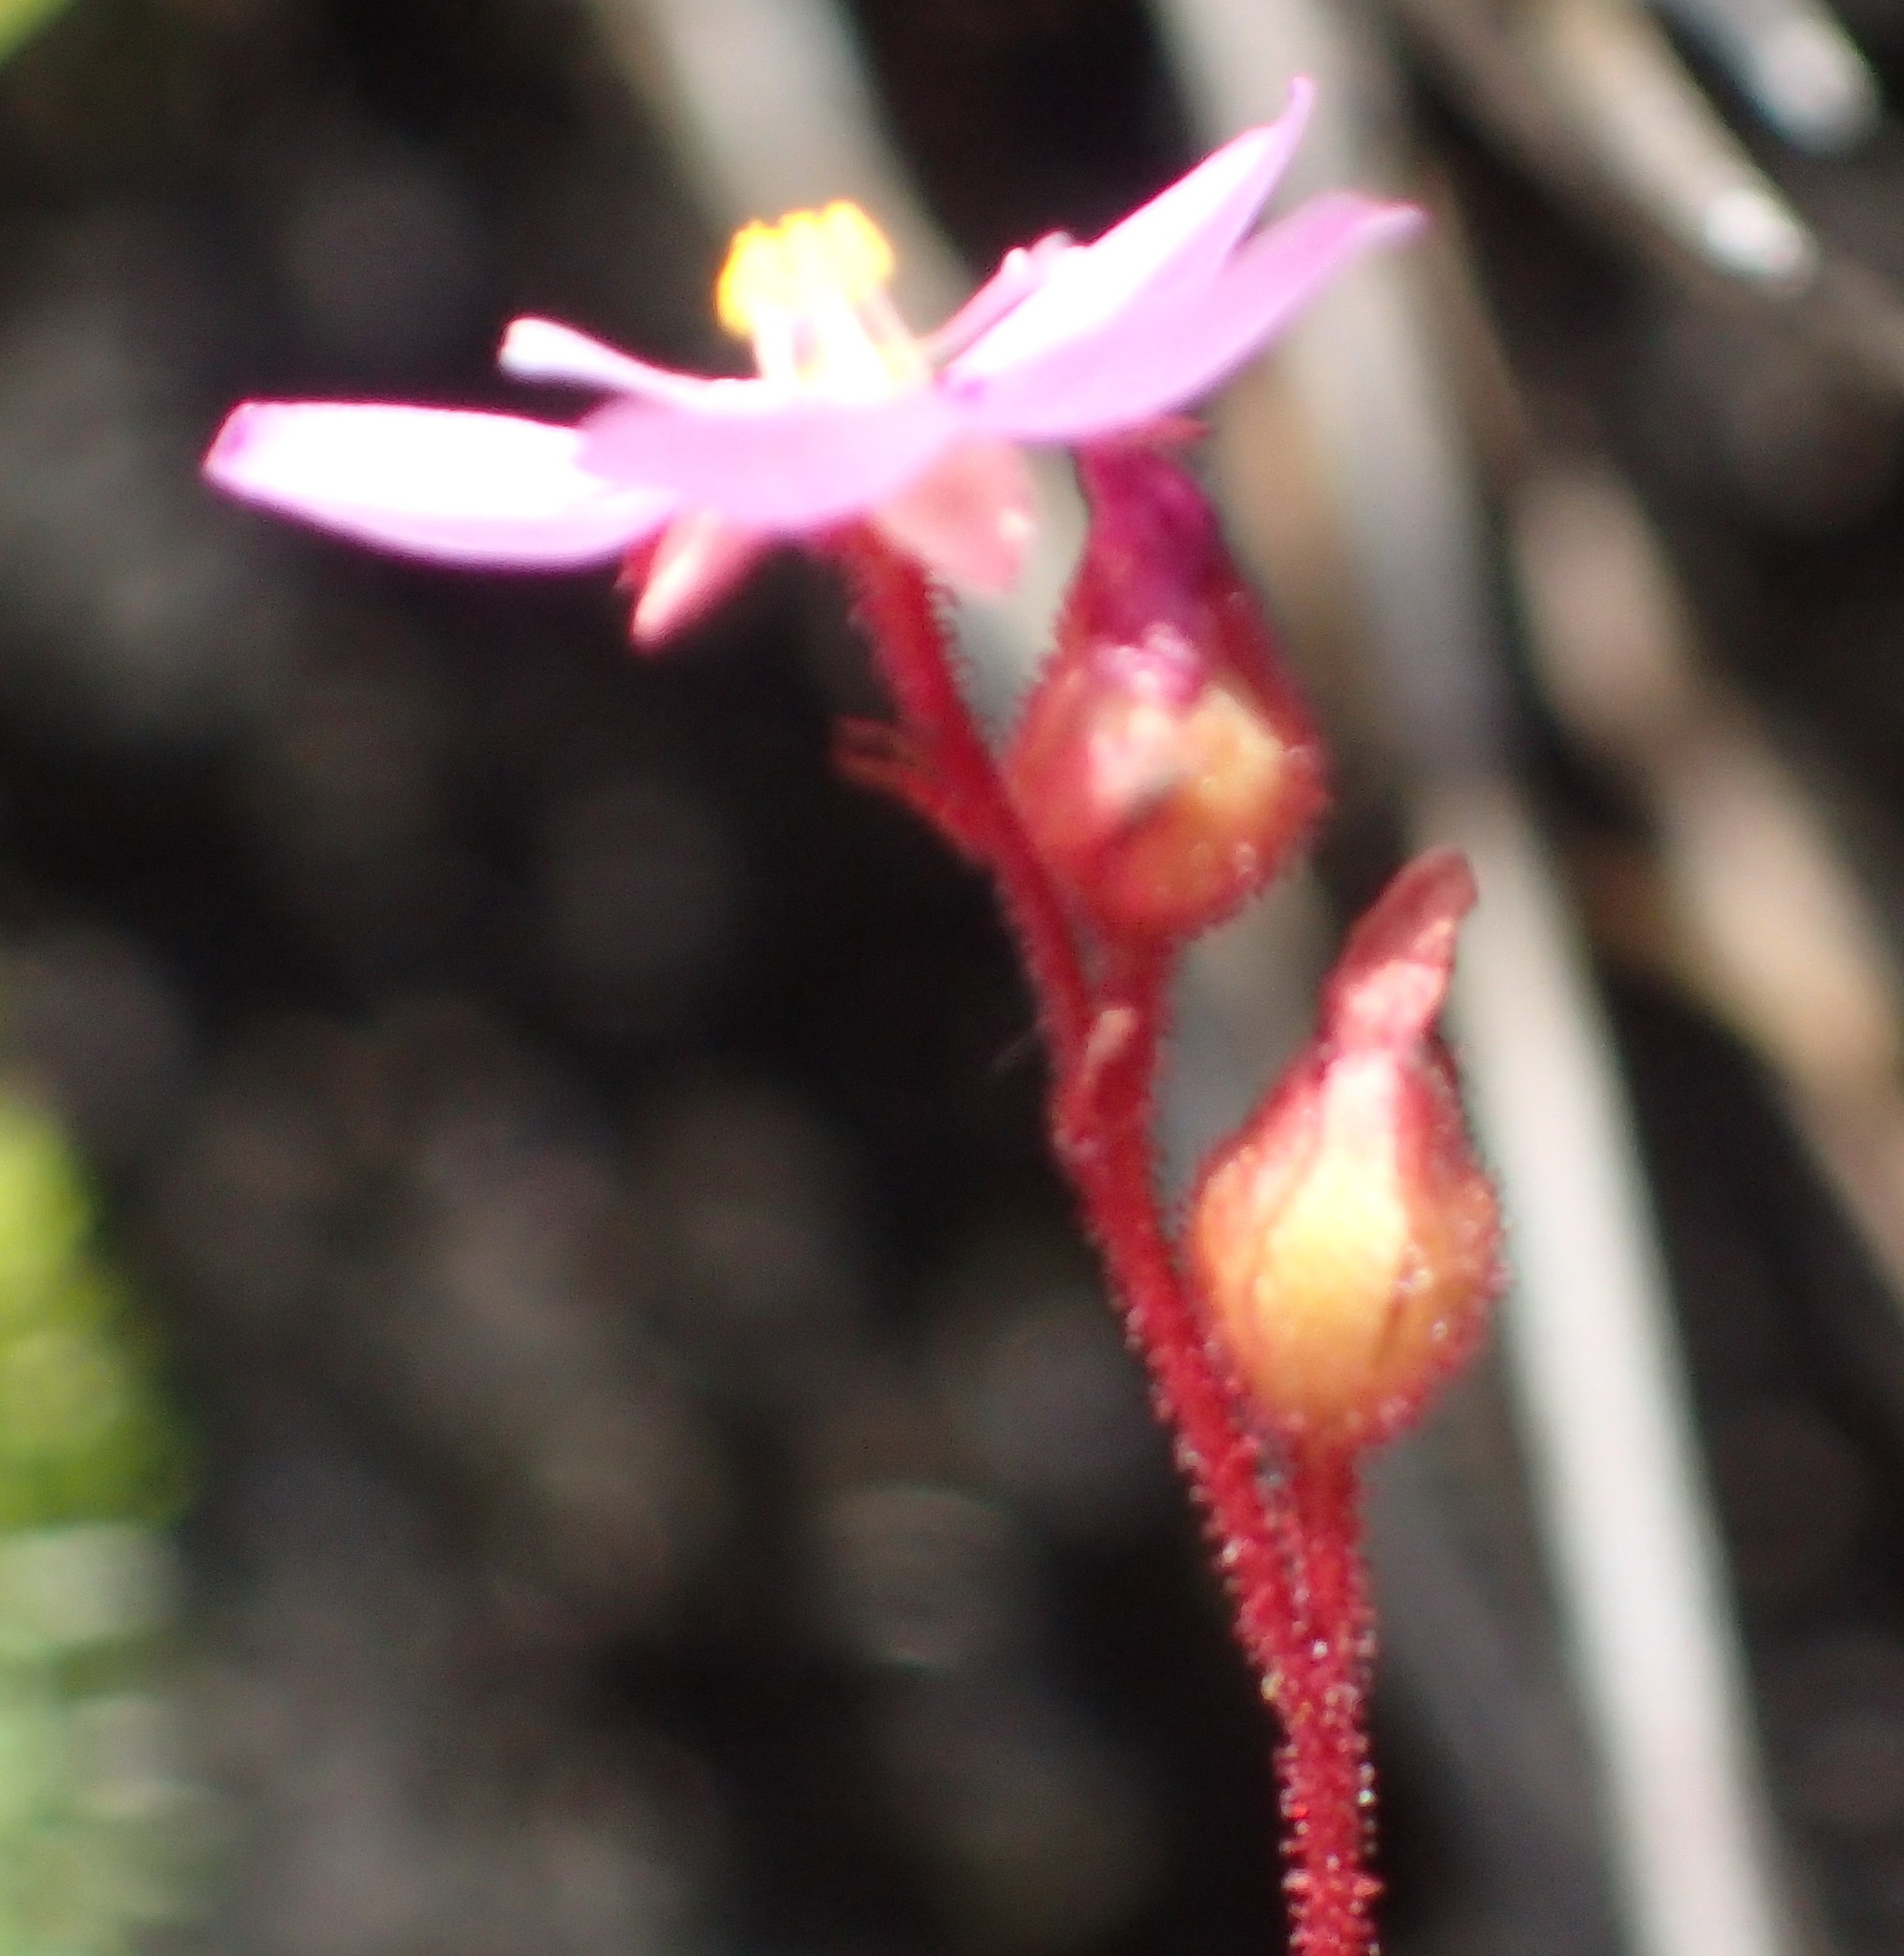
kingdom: Plantae
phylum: Tracheophyta
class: Magnoliopsida
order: Caryophyllales
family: Droseraceae
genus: Drosera
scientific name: Drosera aliciae
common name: Alice sundew
